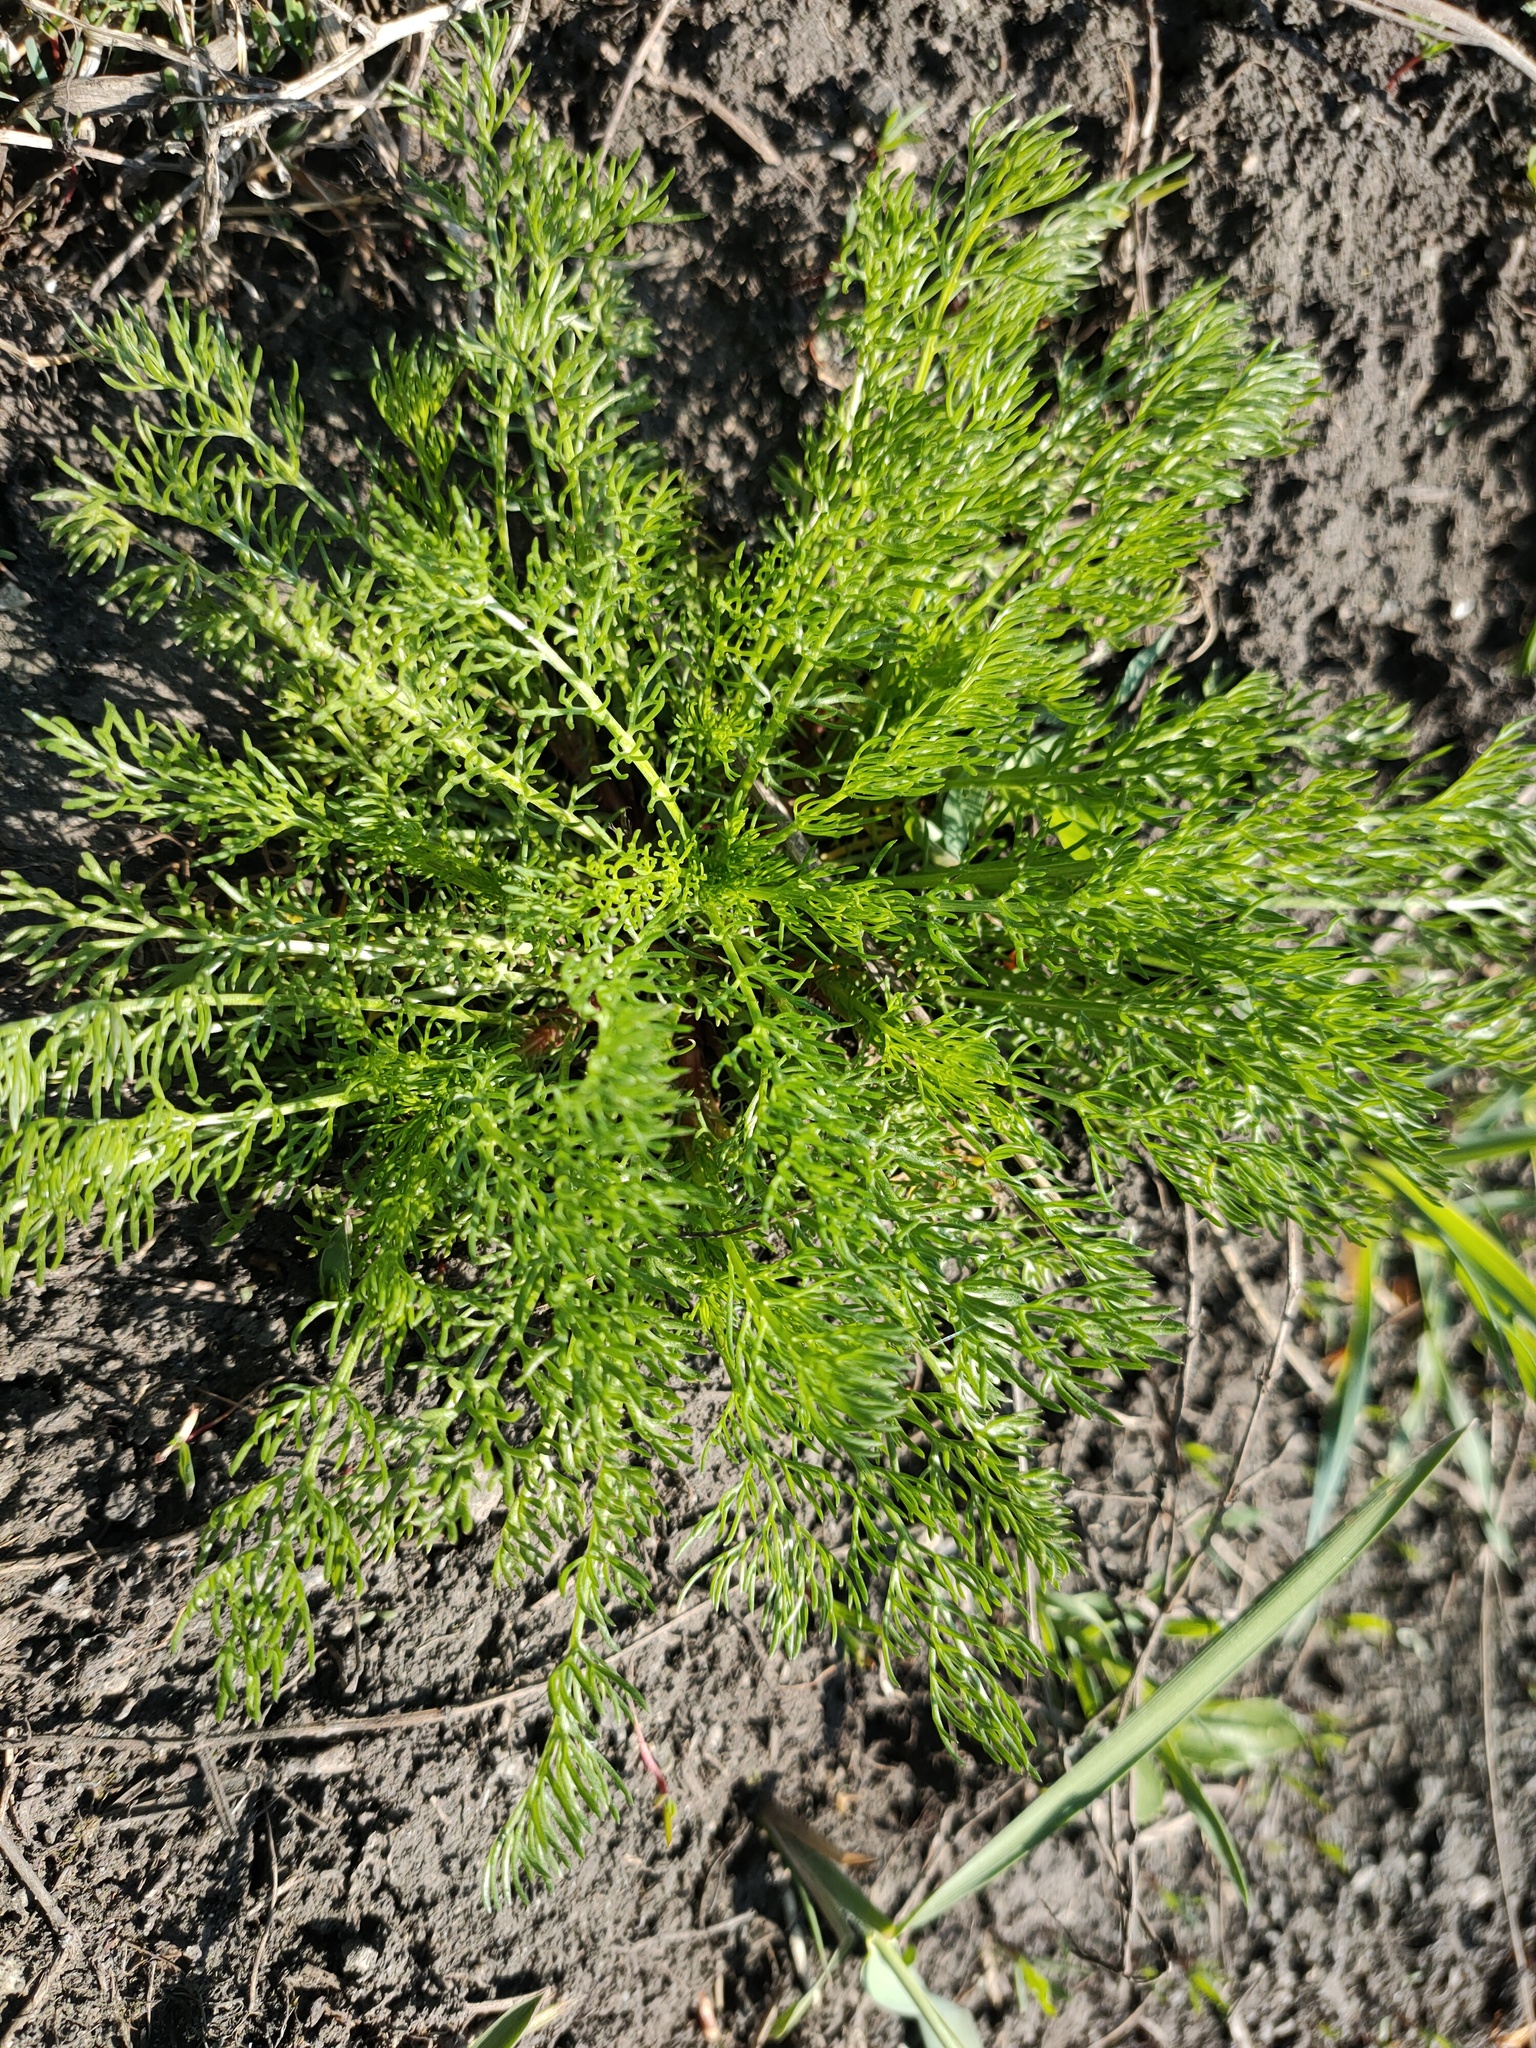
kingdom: Plantae
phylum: Tracheophyta
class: Magnoliopsida
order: Asterales
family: Asteraceae
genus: Tripleurospermum
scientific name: Tripleurospermum inodorum
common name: Scentless mayweed
